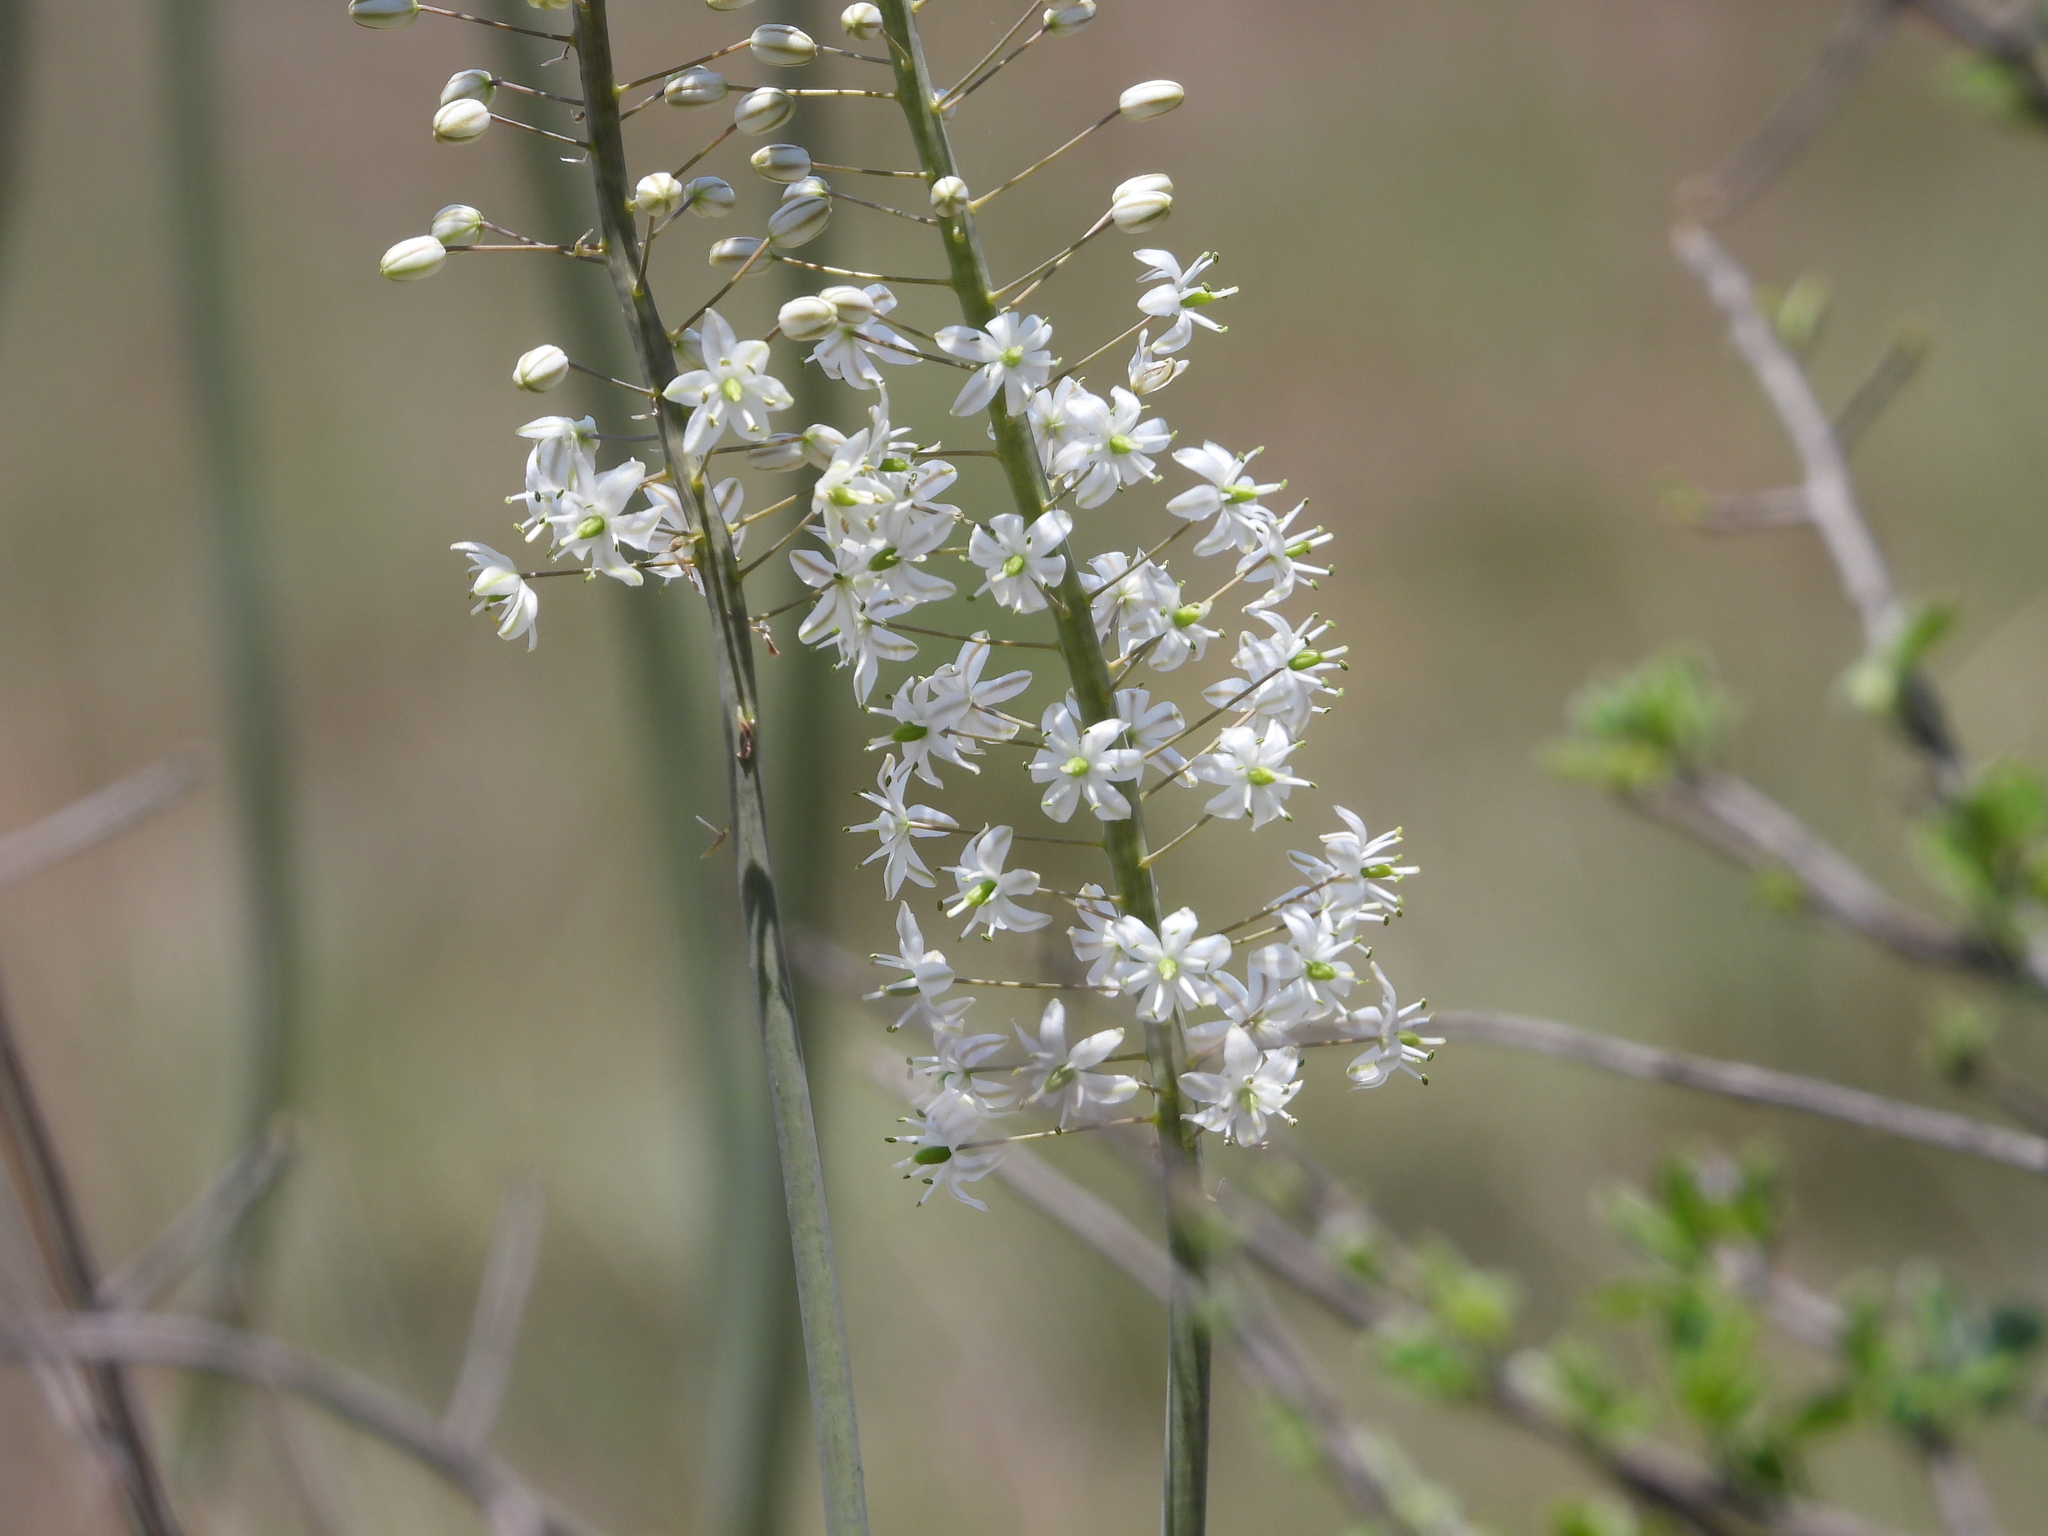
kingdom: Plantae
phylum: Tracheophyta
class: Liliopsida
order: Asparagales
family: Asparagaceae
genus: Drimia
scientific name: Drimia altissima
